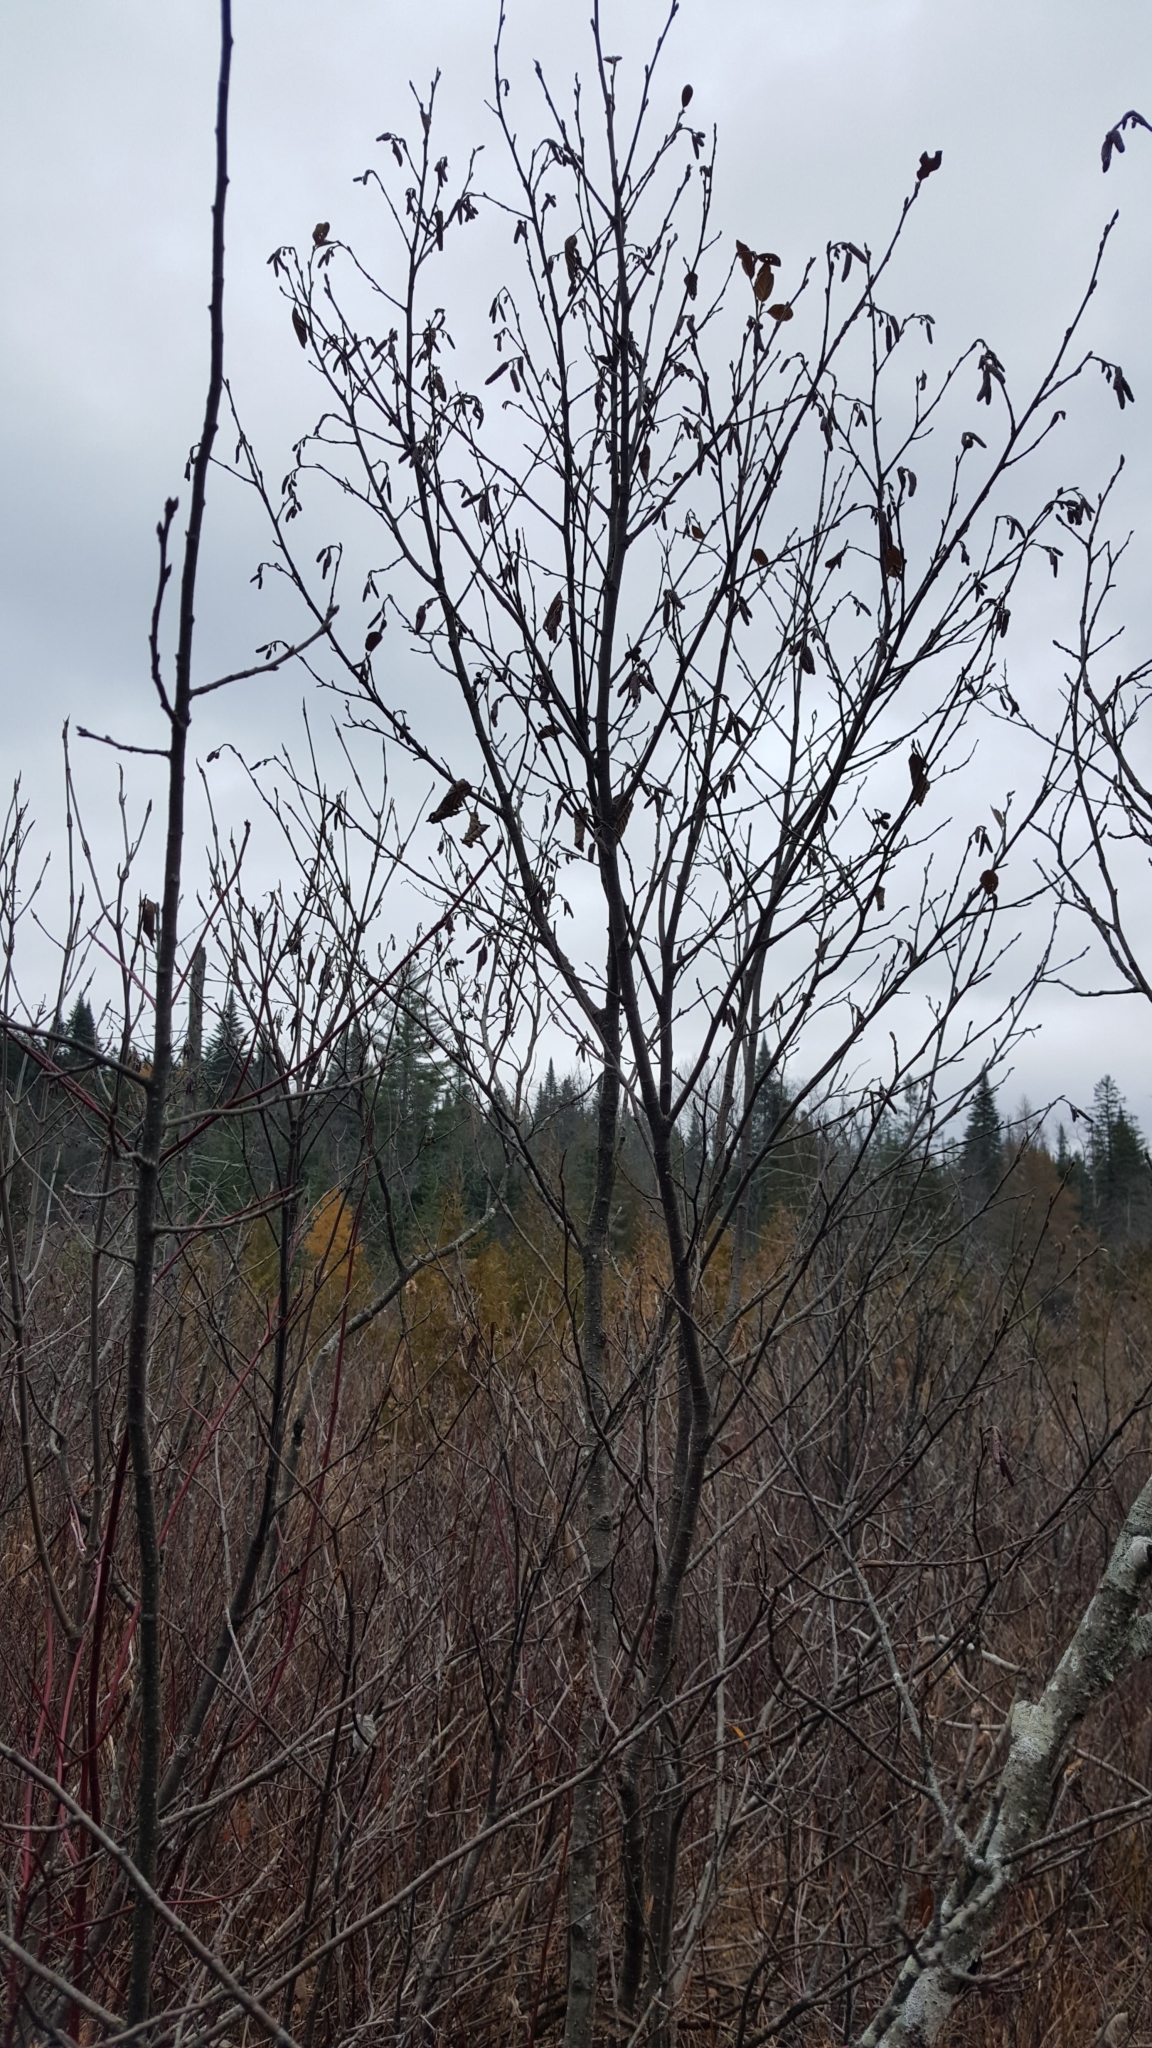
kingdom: Plantae
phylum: Tracheophyta
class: Magnoliopsida
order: Fagales
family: Betulaceae
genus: Alnus
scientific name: Alnus incana
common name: Grey alder
